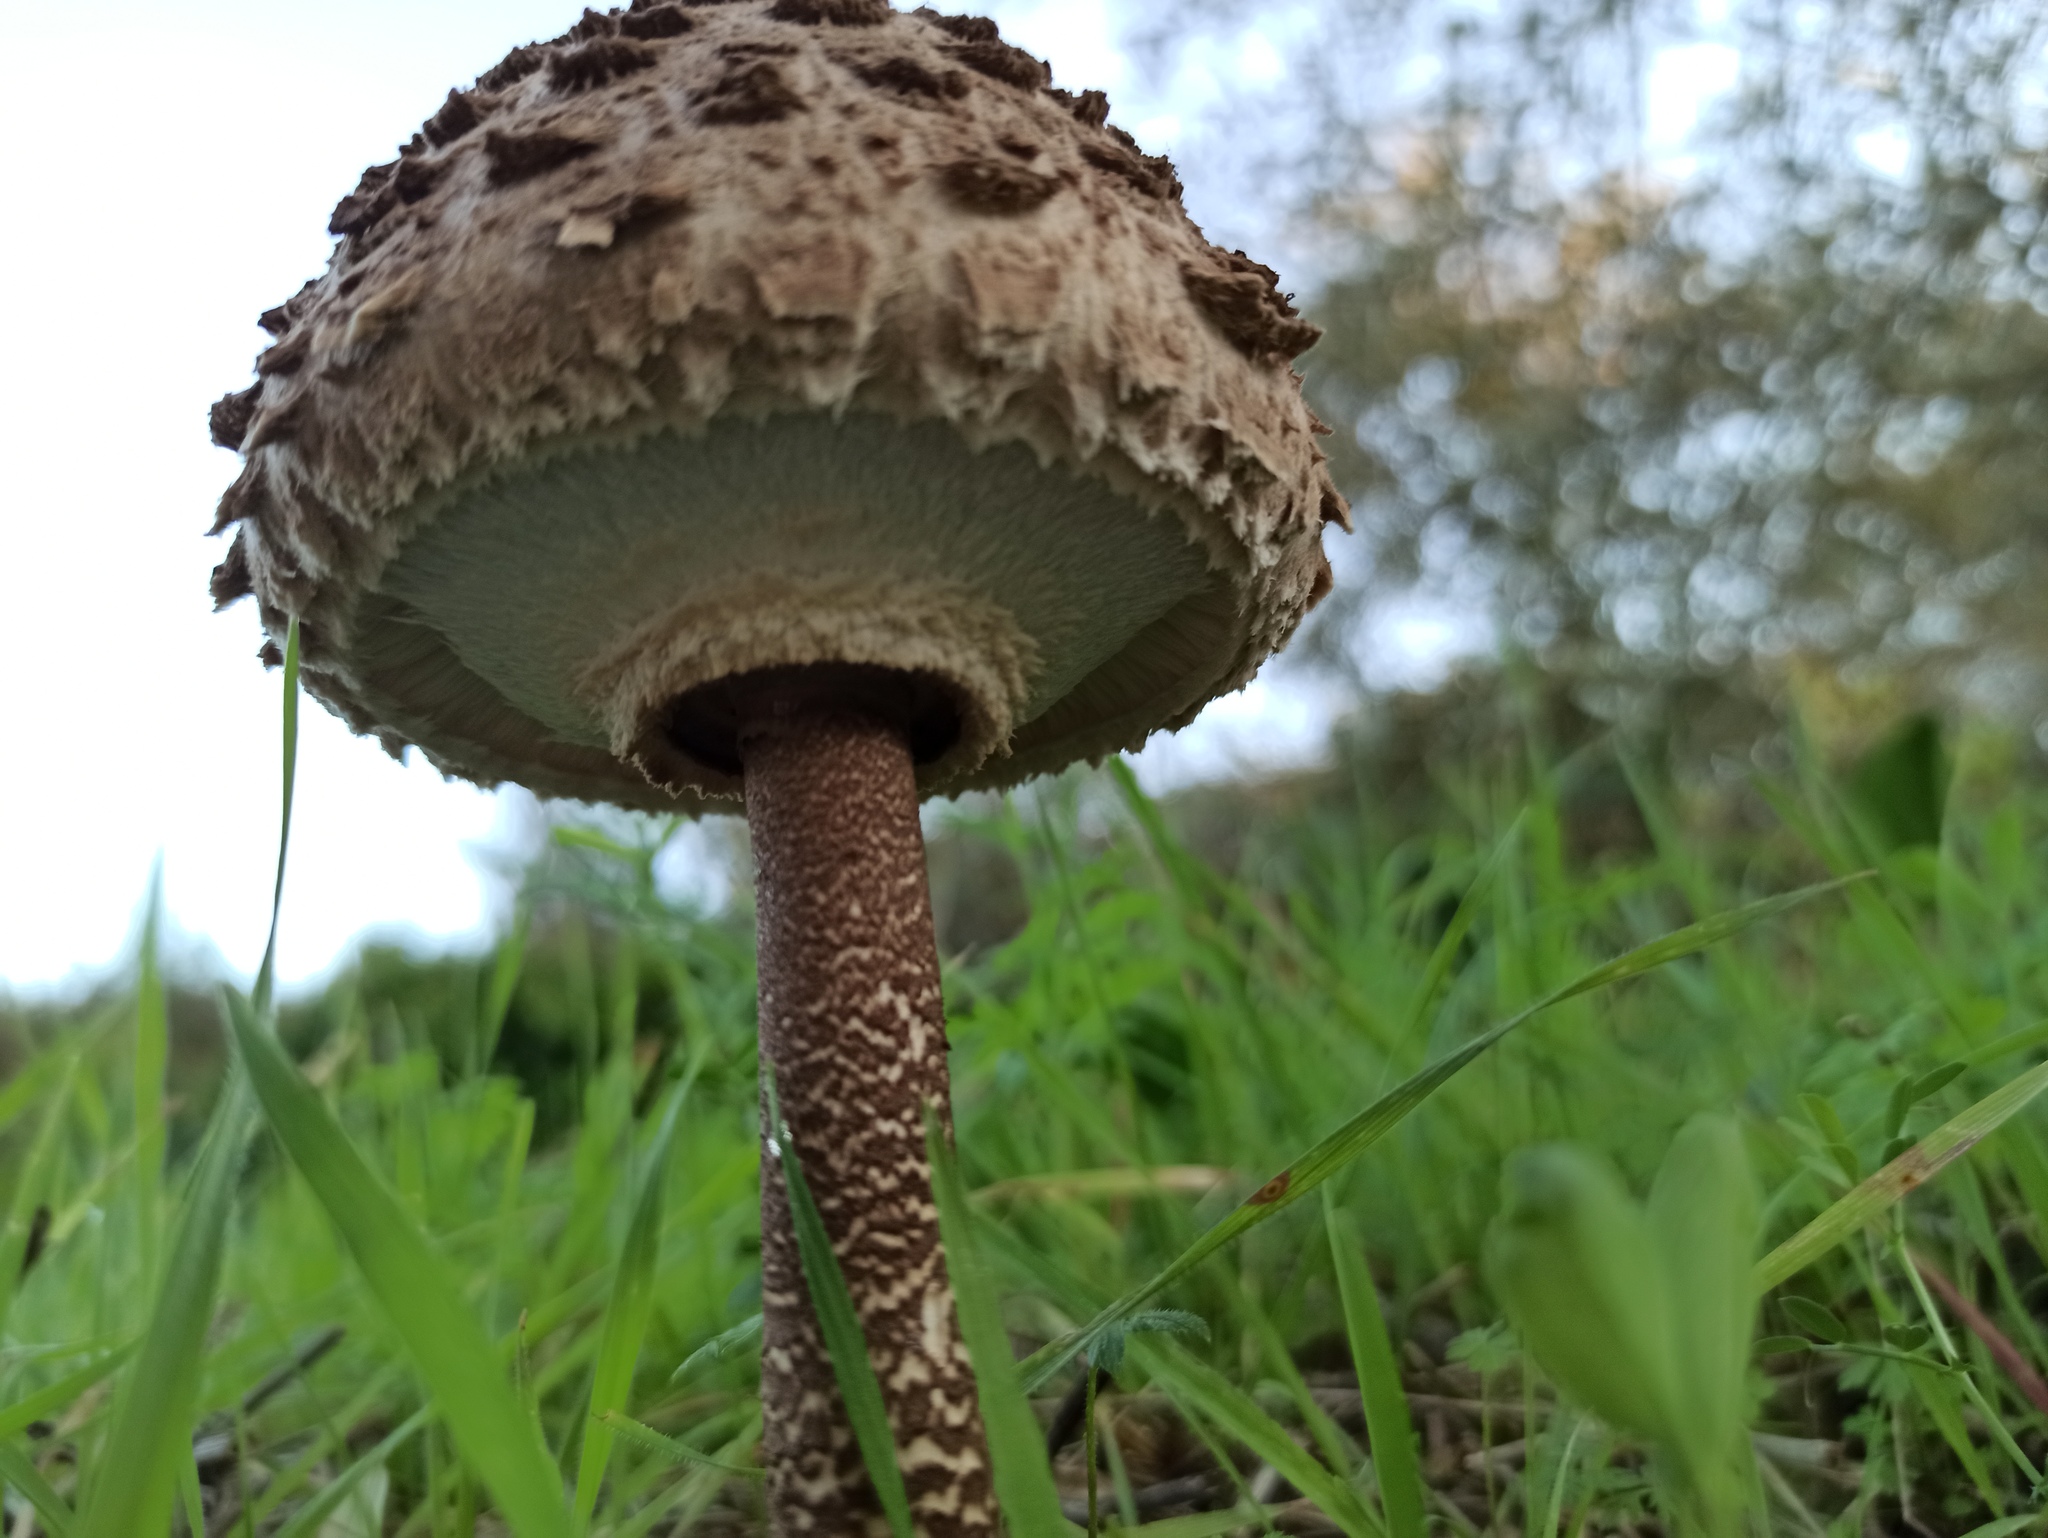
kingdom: Fungi
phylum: Basidiomycota
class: Agaricomycetes
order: Agaricales
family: Agaricaceae
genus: Macrolepiota
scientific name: Macrolepiota procera
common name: Parasol
